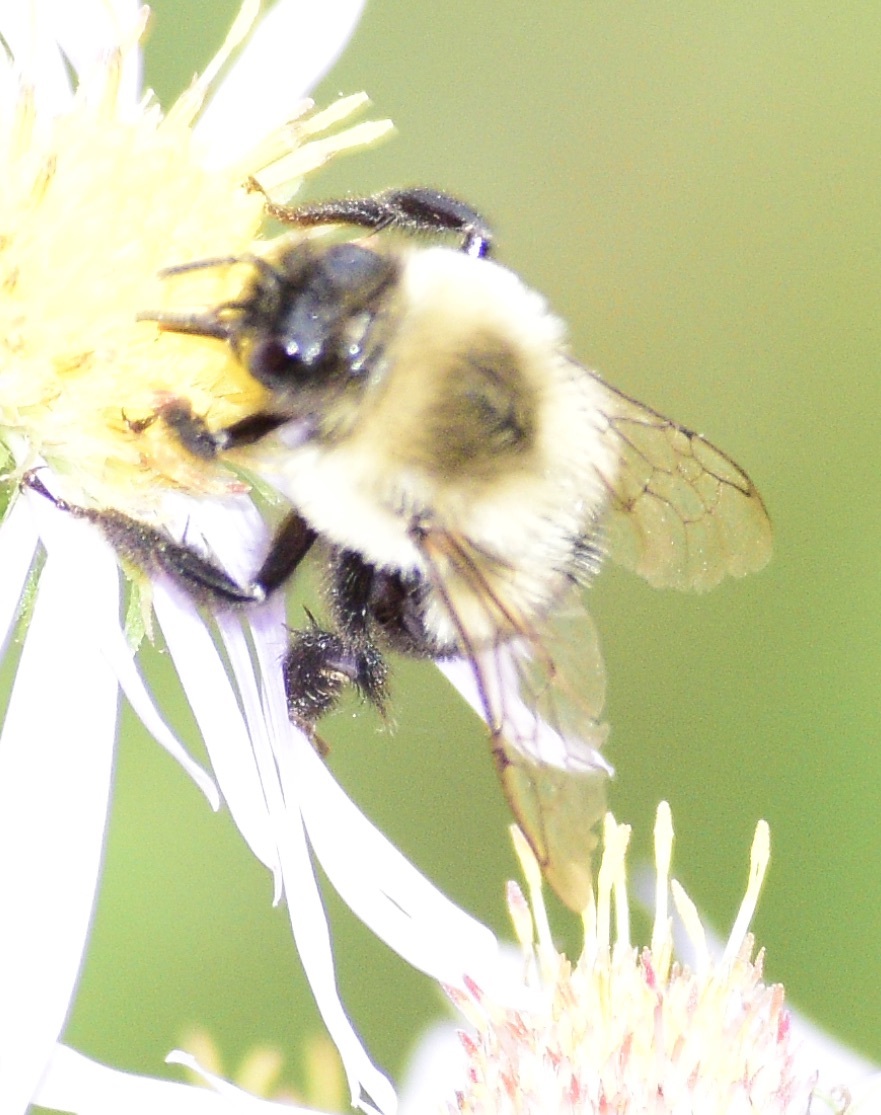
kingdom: Animalia
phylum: Arthropoda
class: Insecta
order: Hymenoptera
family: Apidae
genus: Bombus
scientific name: Bombus impatiens
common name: Common eastern bumble bee
